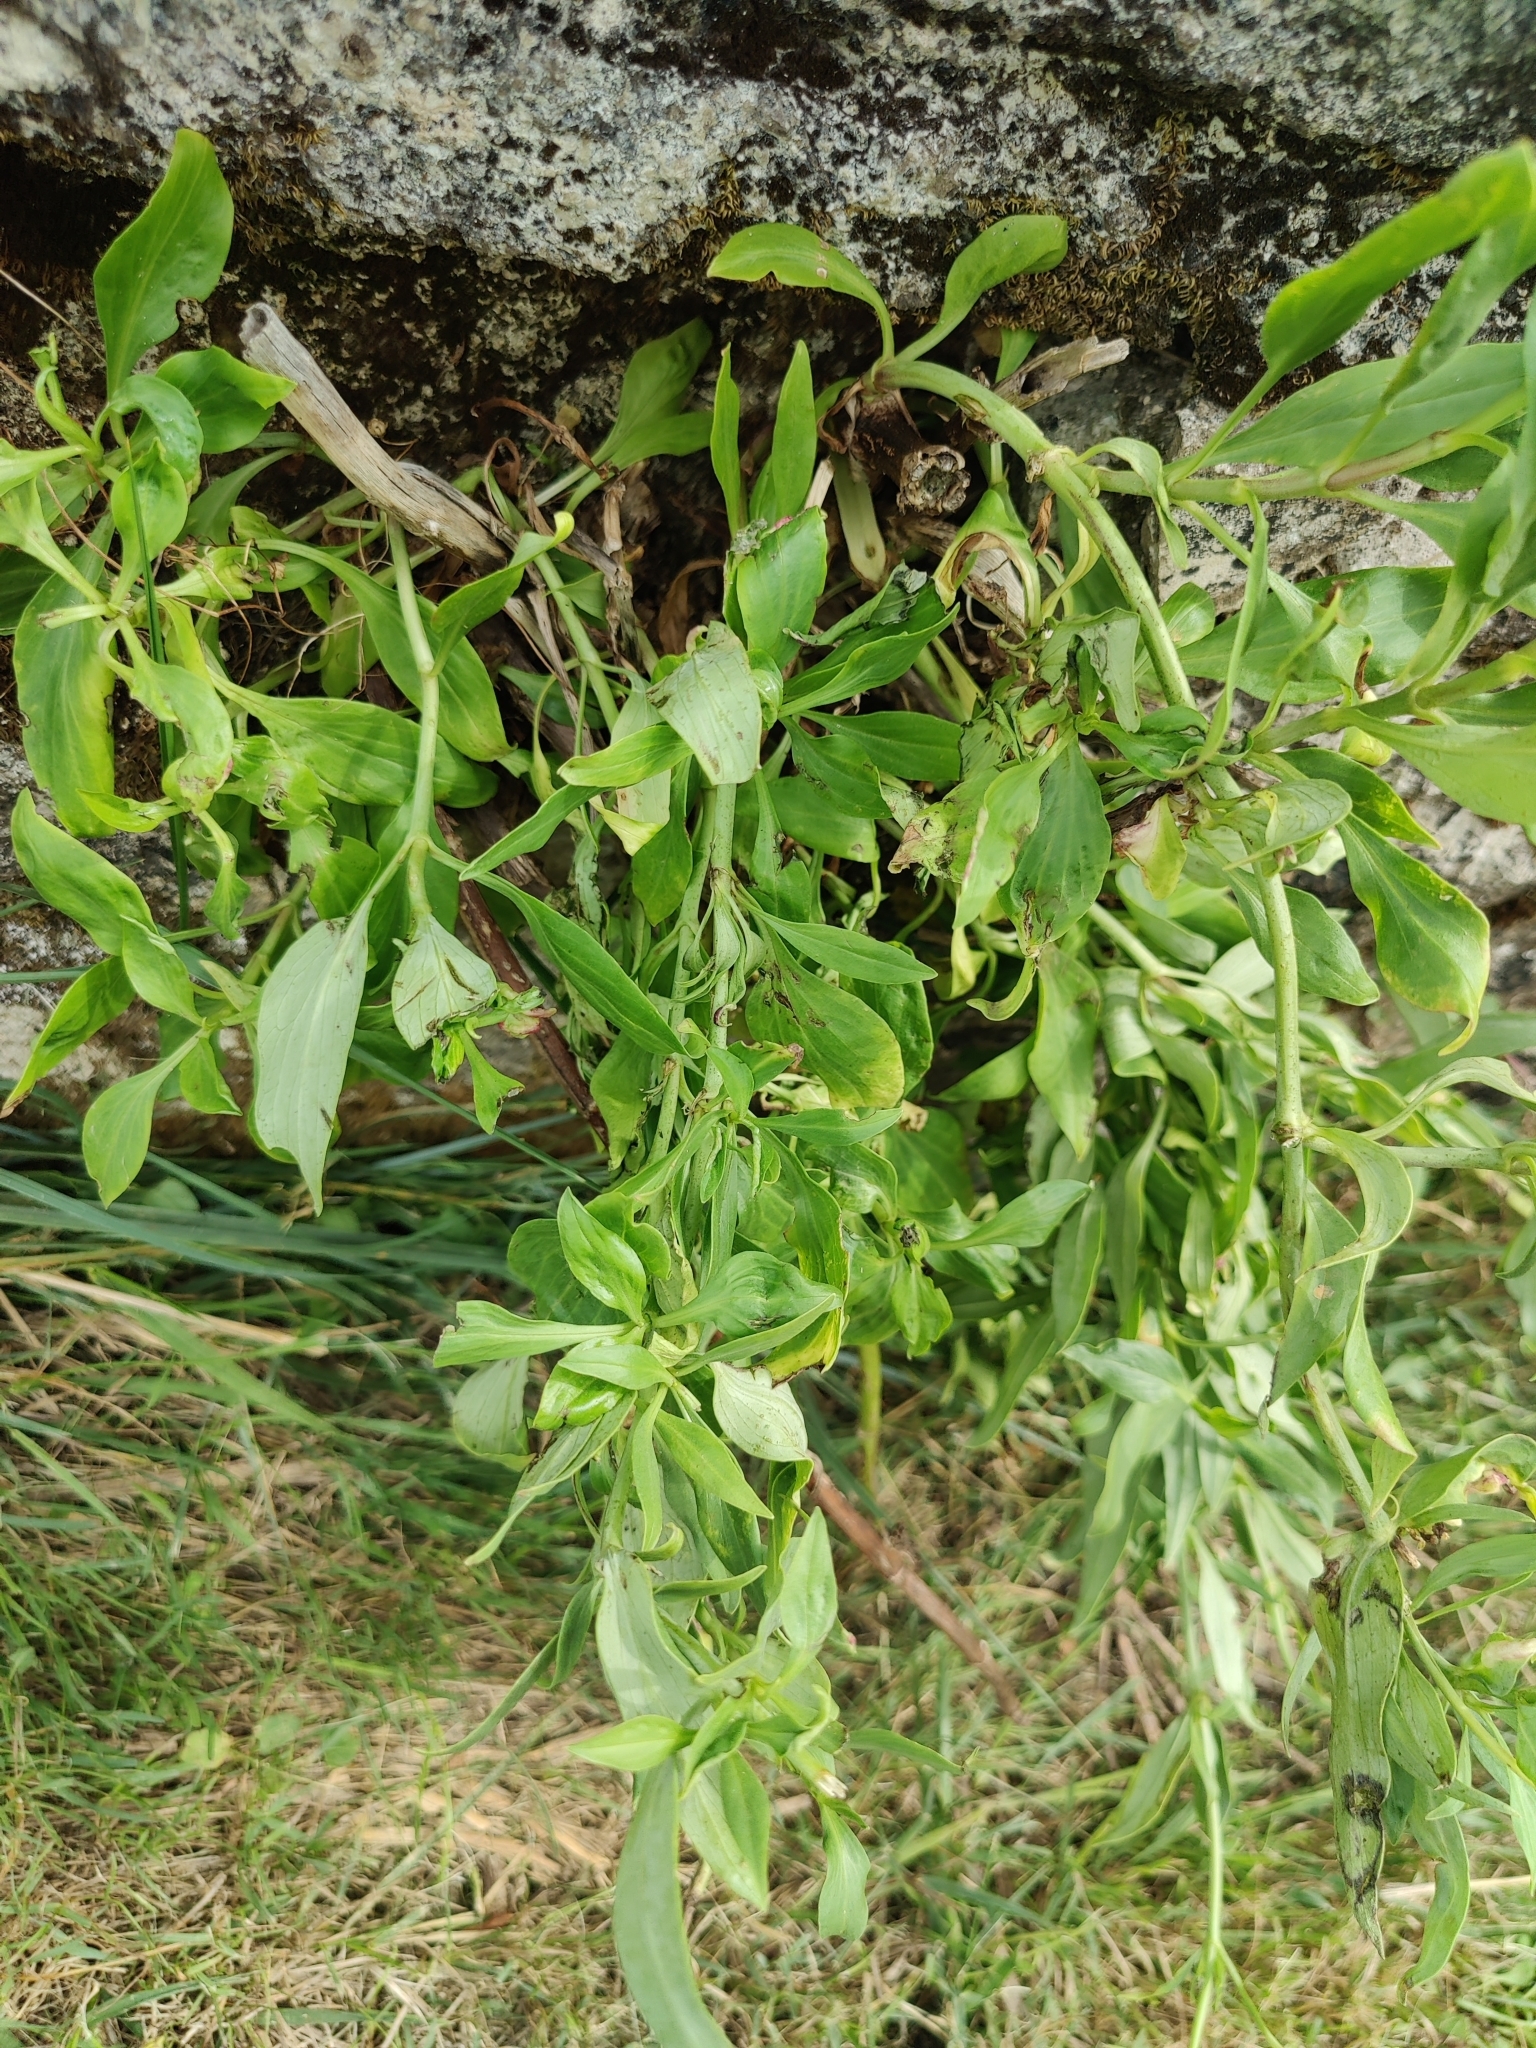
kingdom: Plantae
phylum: Tracheophyta
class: Magnoliopsida
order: Dipsacales
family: Caprifoliaceae
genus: Centranthus
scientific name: Centranthus ruber
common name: Red valerian
